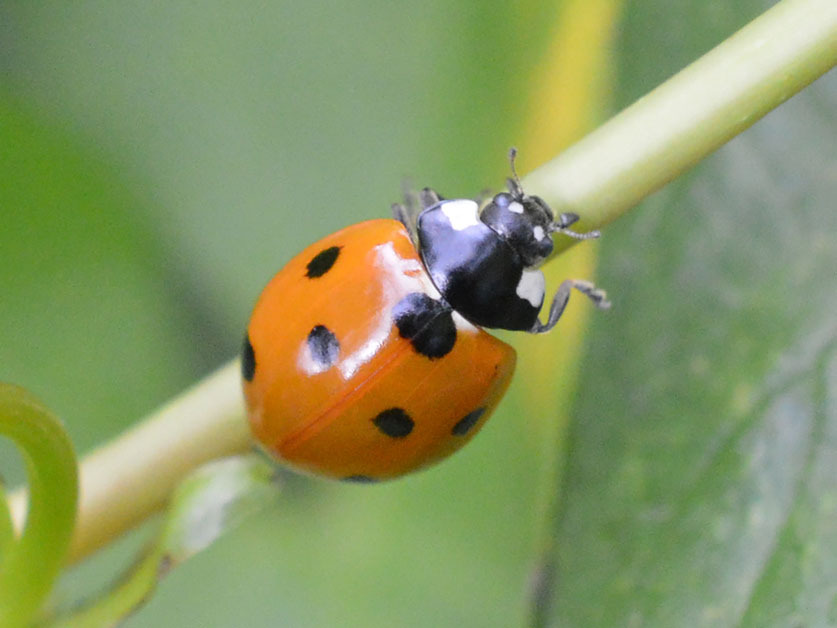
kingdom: Animalia
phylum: Arthropoda
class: Insecta
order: Coleoptera
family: Coccinellidae
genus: Coccinella
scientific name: Coccinella septempunctata
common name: Sevenspotted lady beetle
